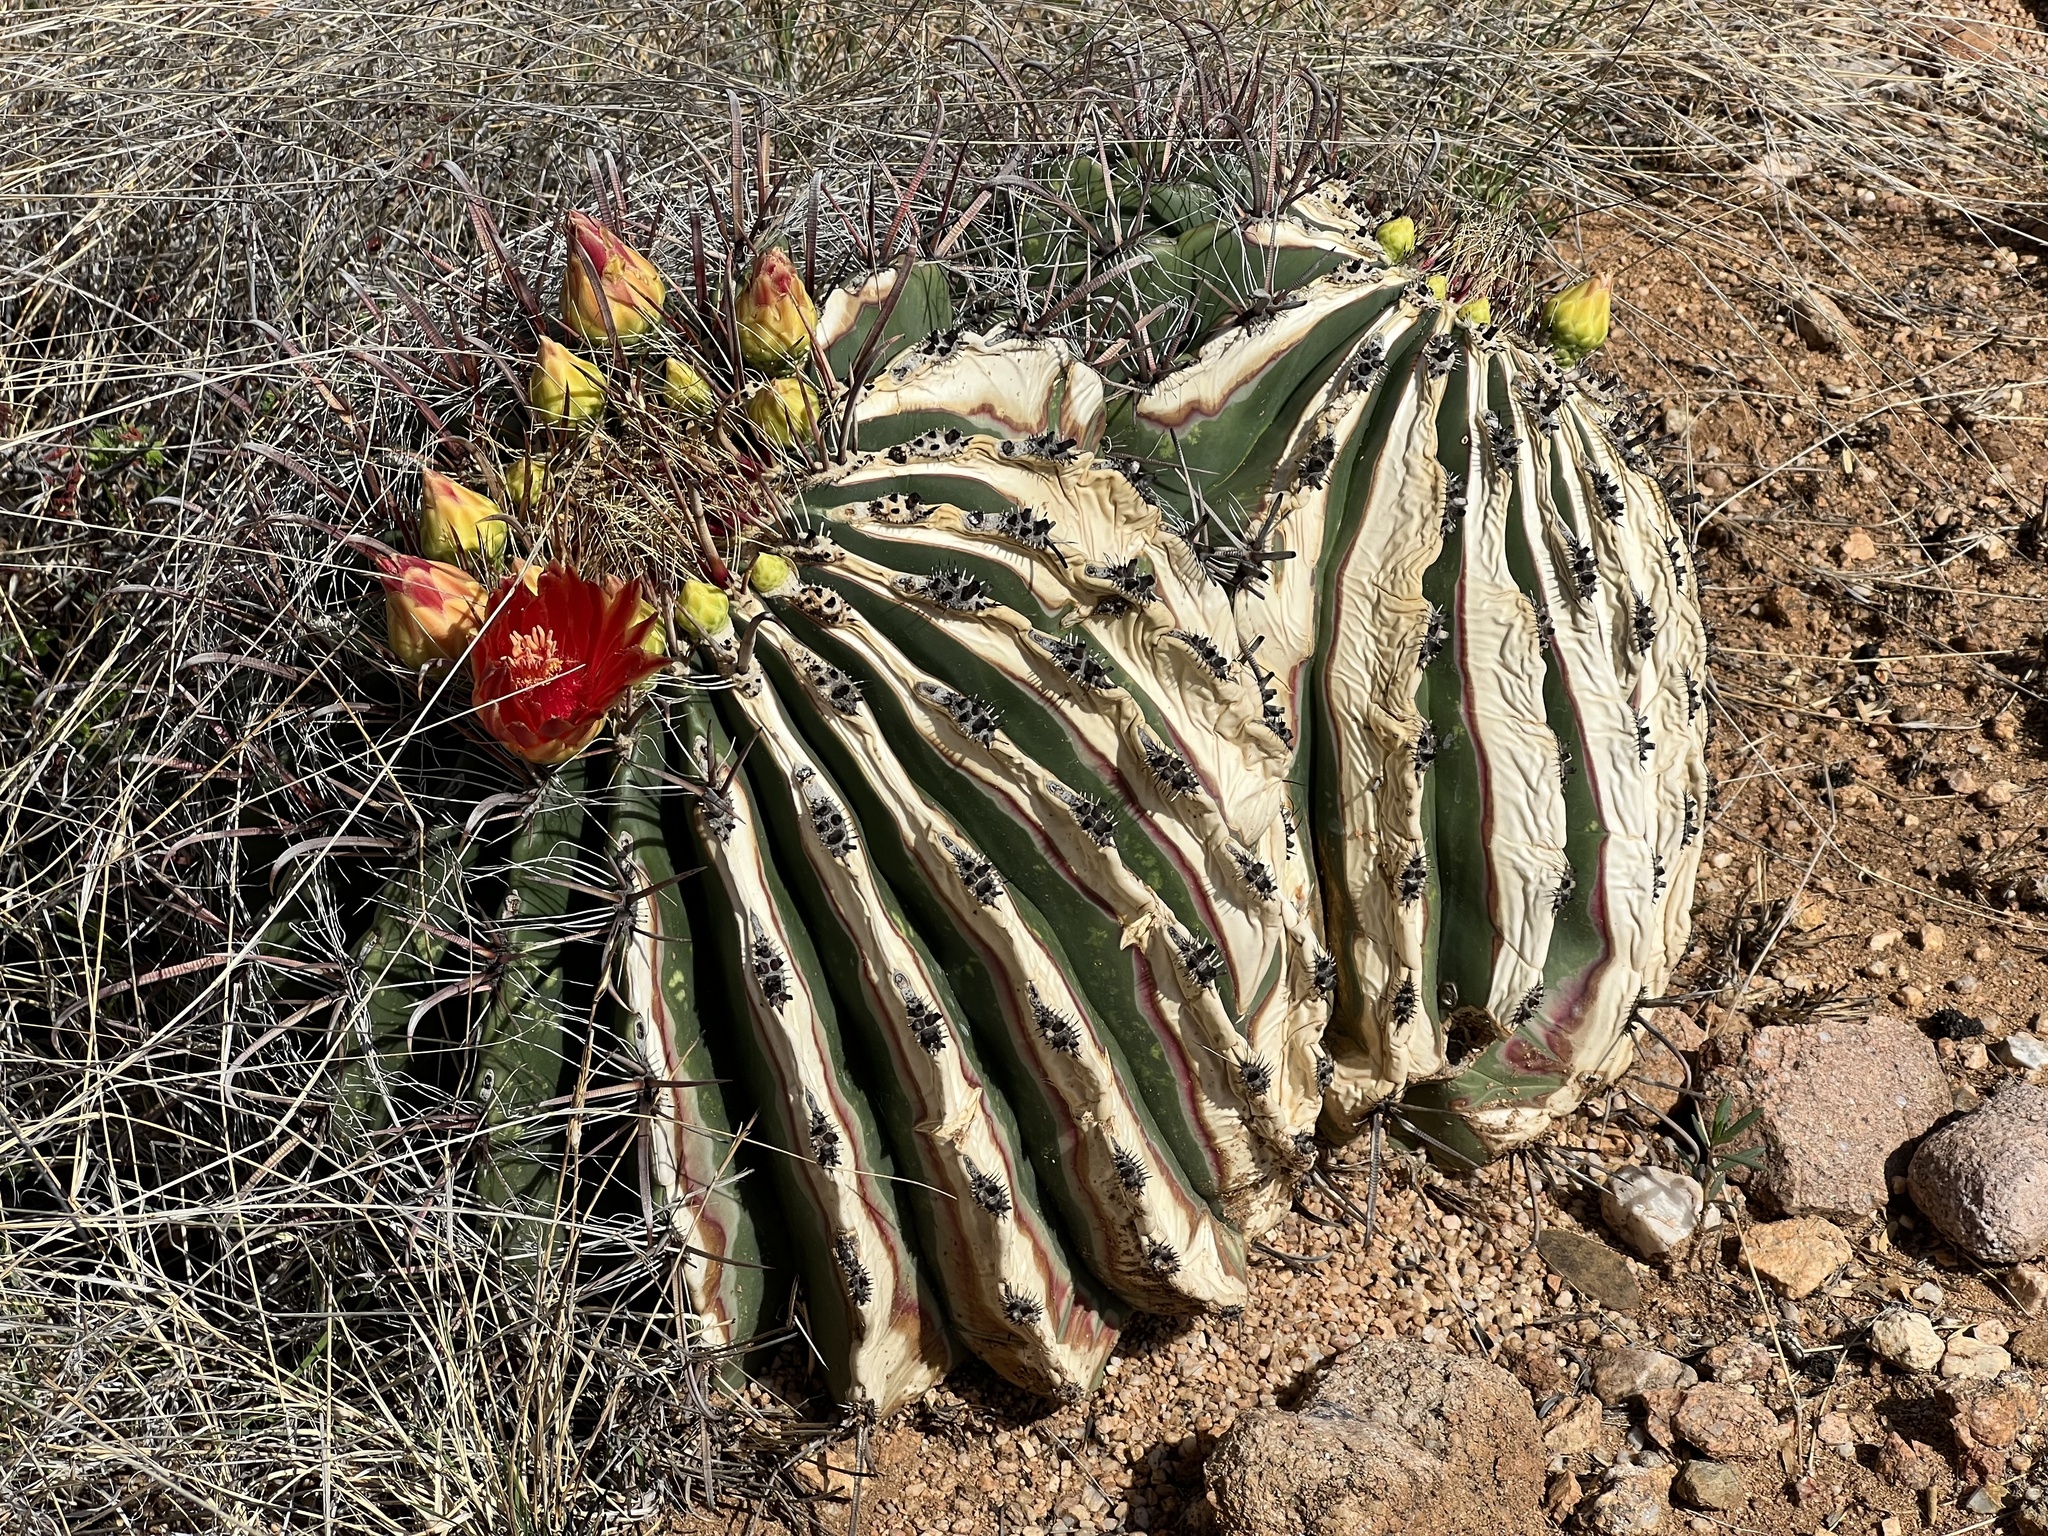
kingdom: Plantae
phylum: Tracheophyta
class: Magnoliopsida
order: Caryophyllales
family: Cactaceae
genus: Ferocactus
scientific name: Ferocactus wislizeni
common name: Candy barrel cactus
